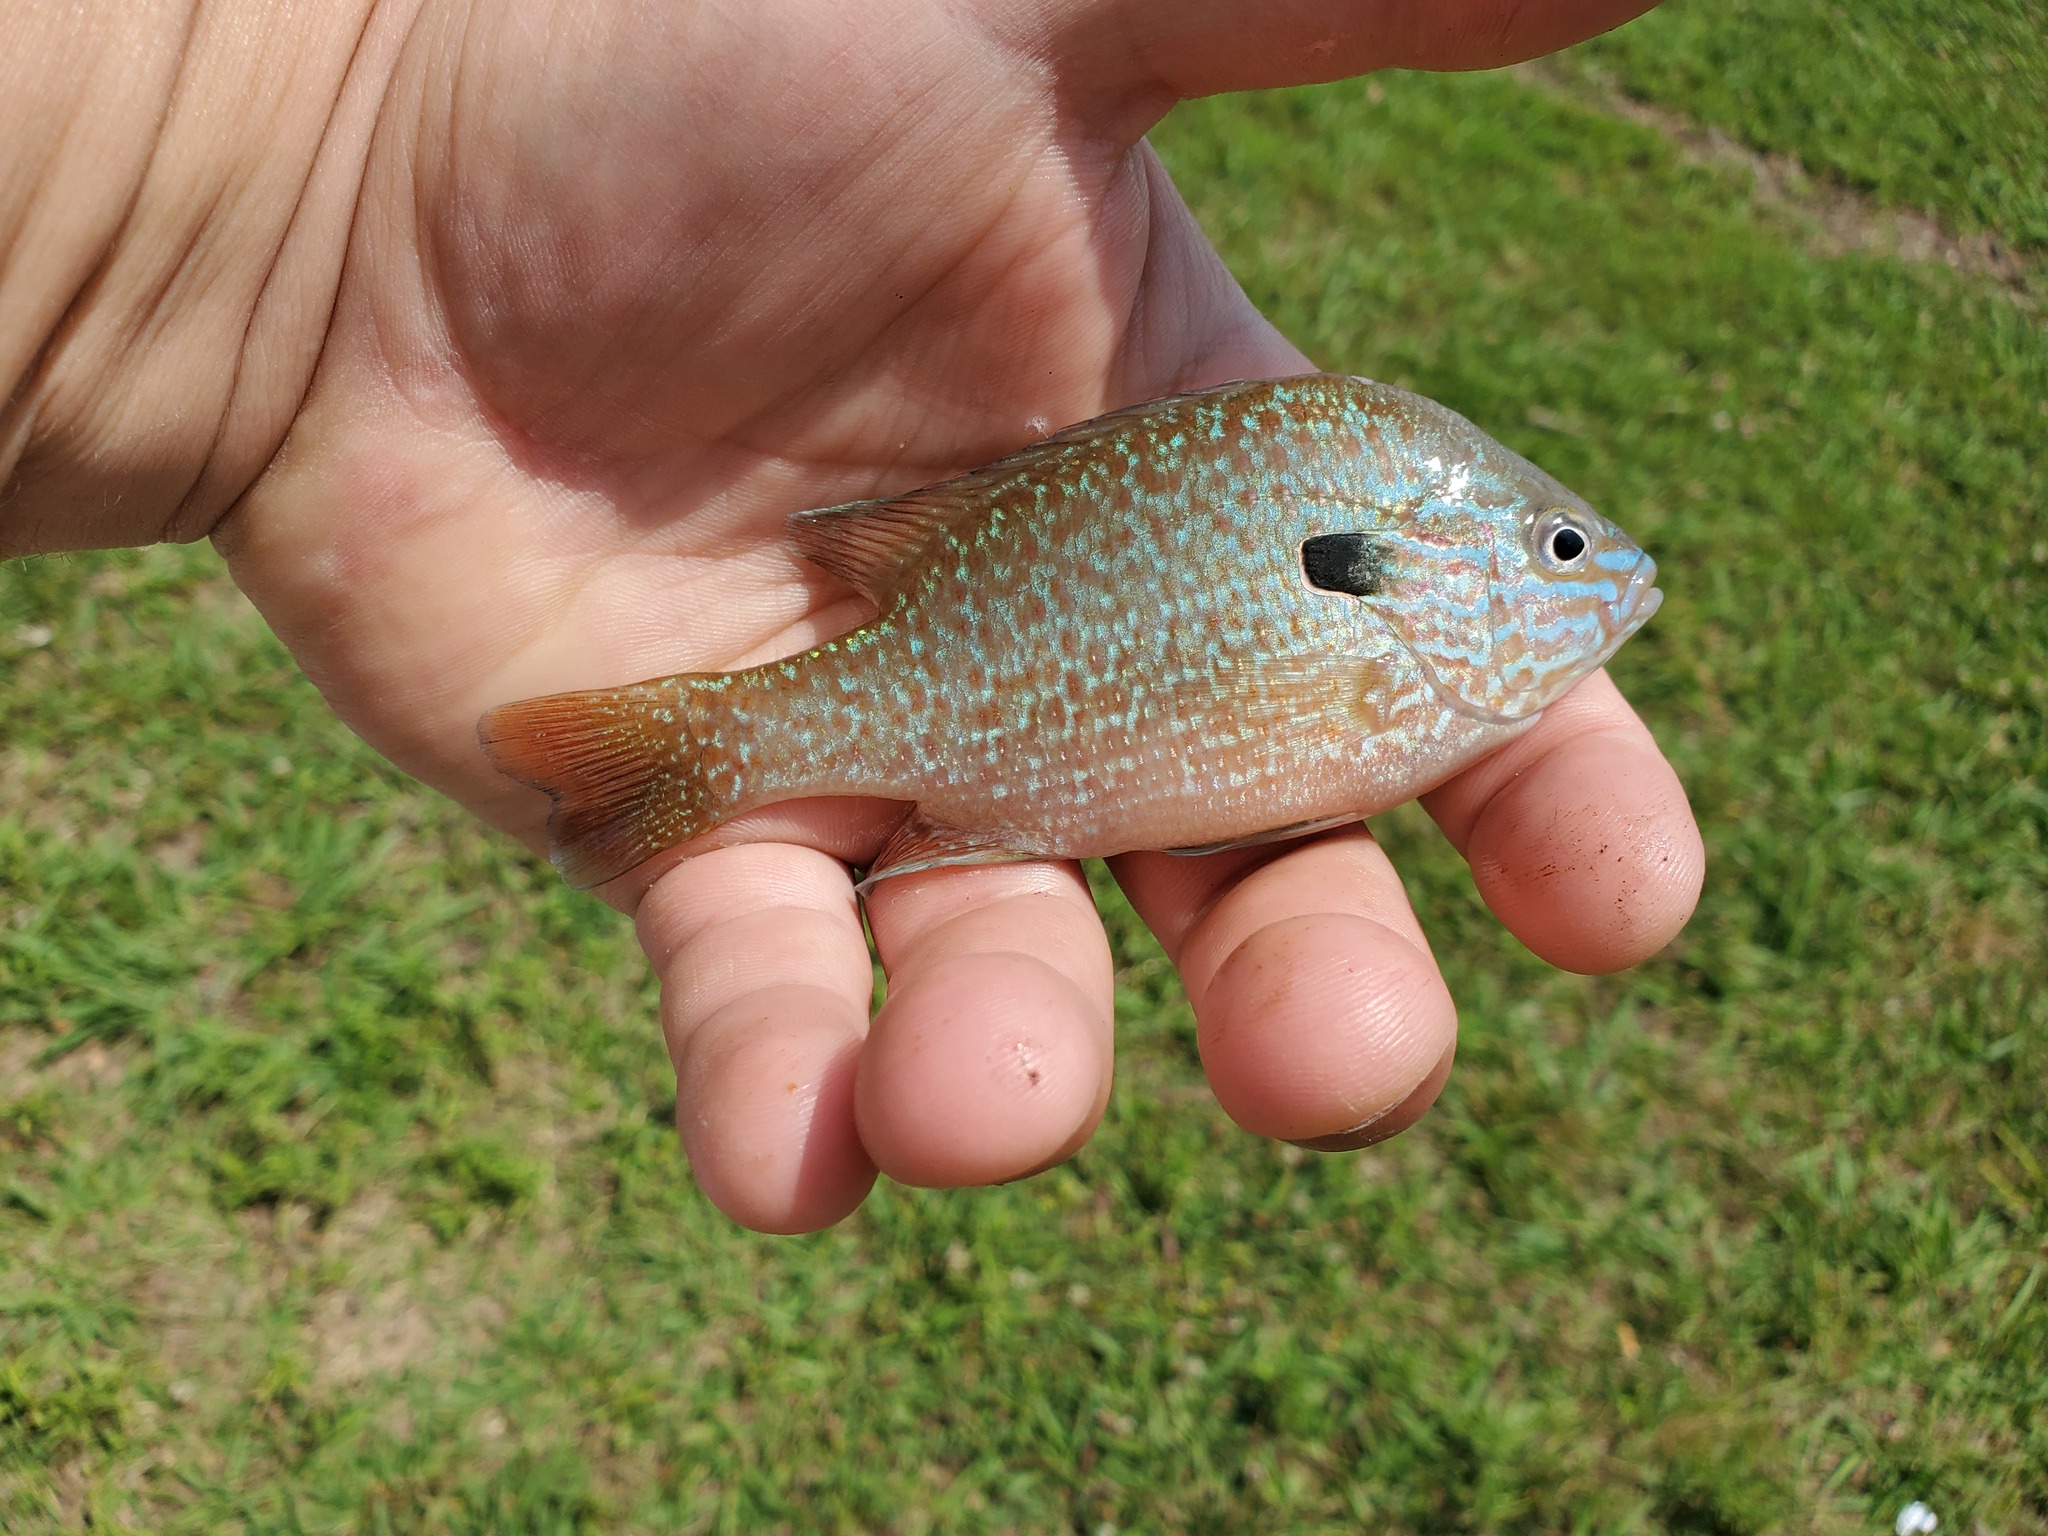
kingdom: Animalia
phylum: Chordata
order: Perciformes
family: Centrarchidae
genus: Lepomis
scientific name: Lepomis megalotis
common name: Longear sunfish
